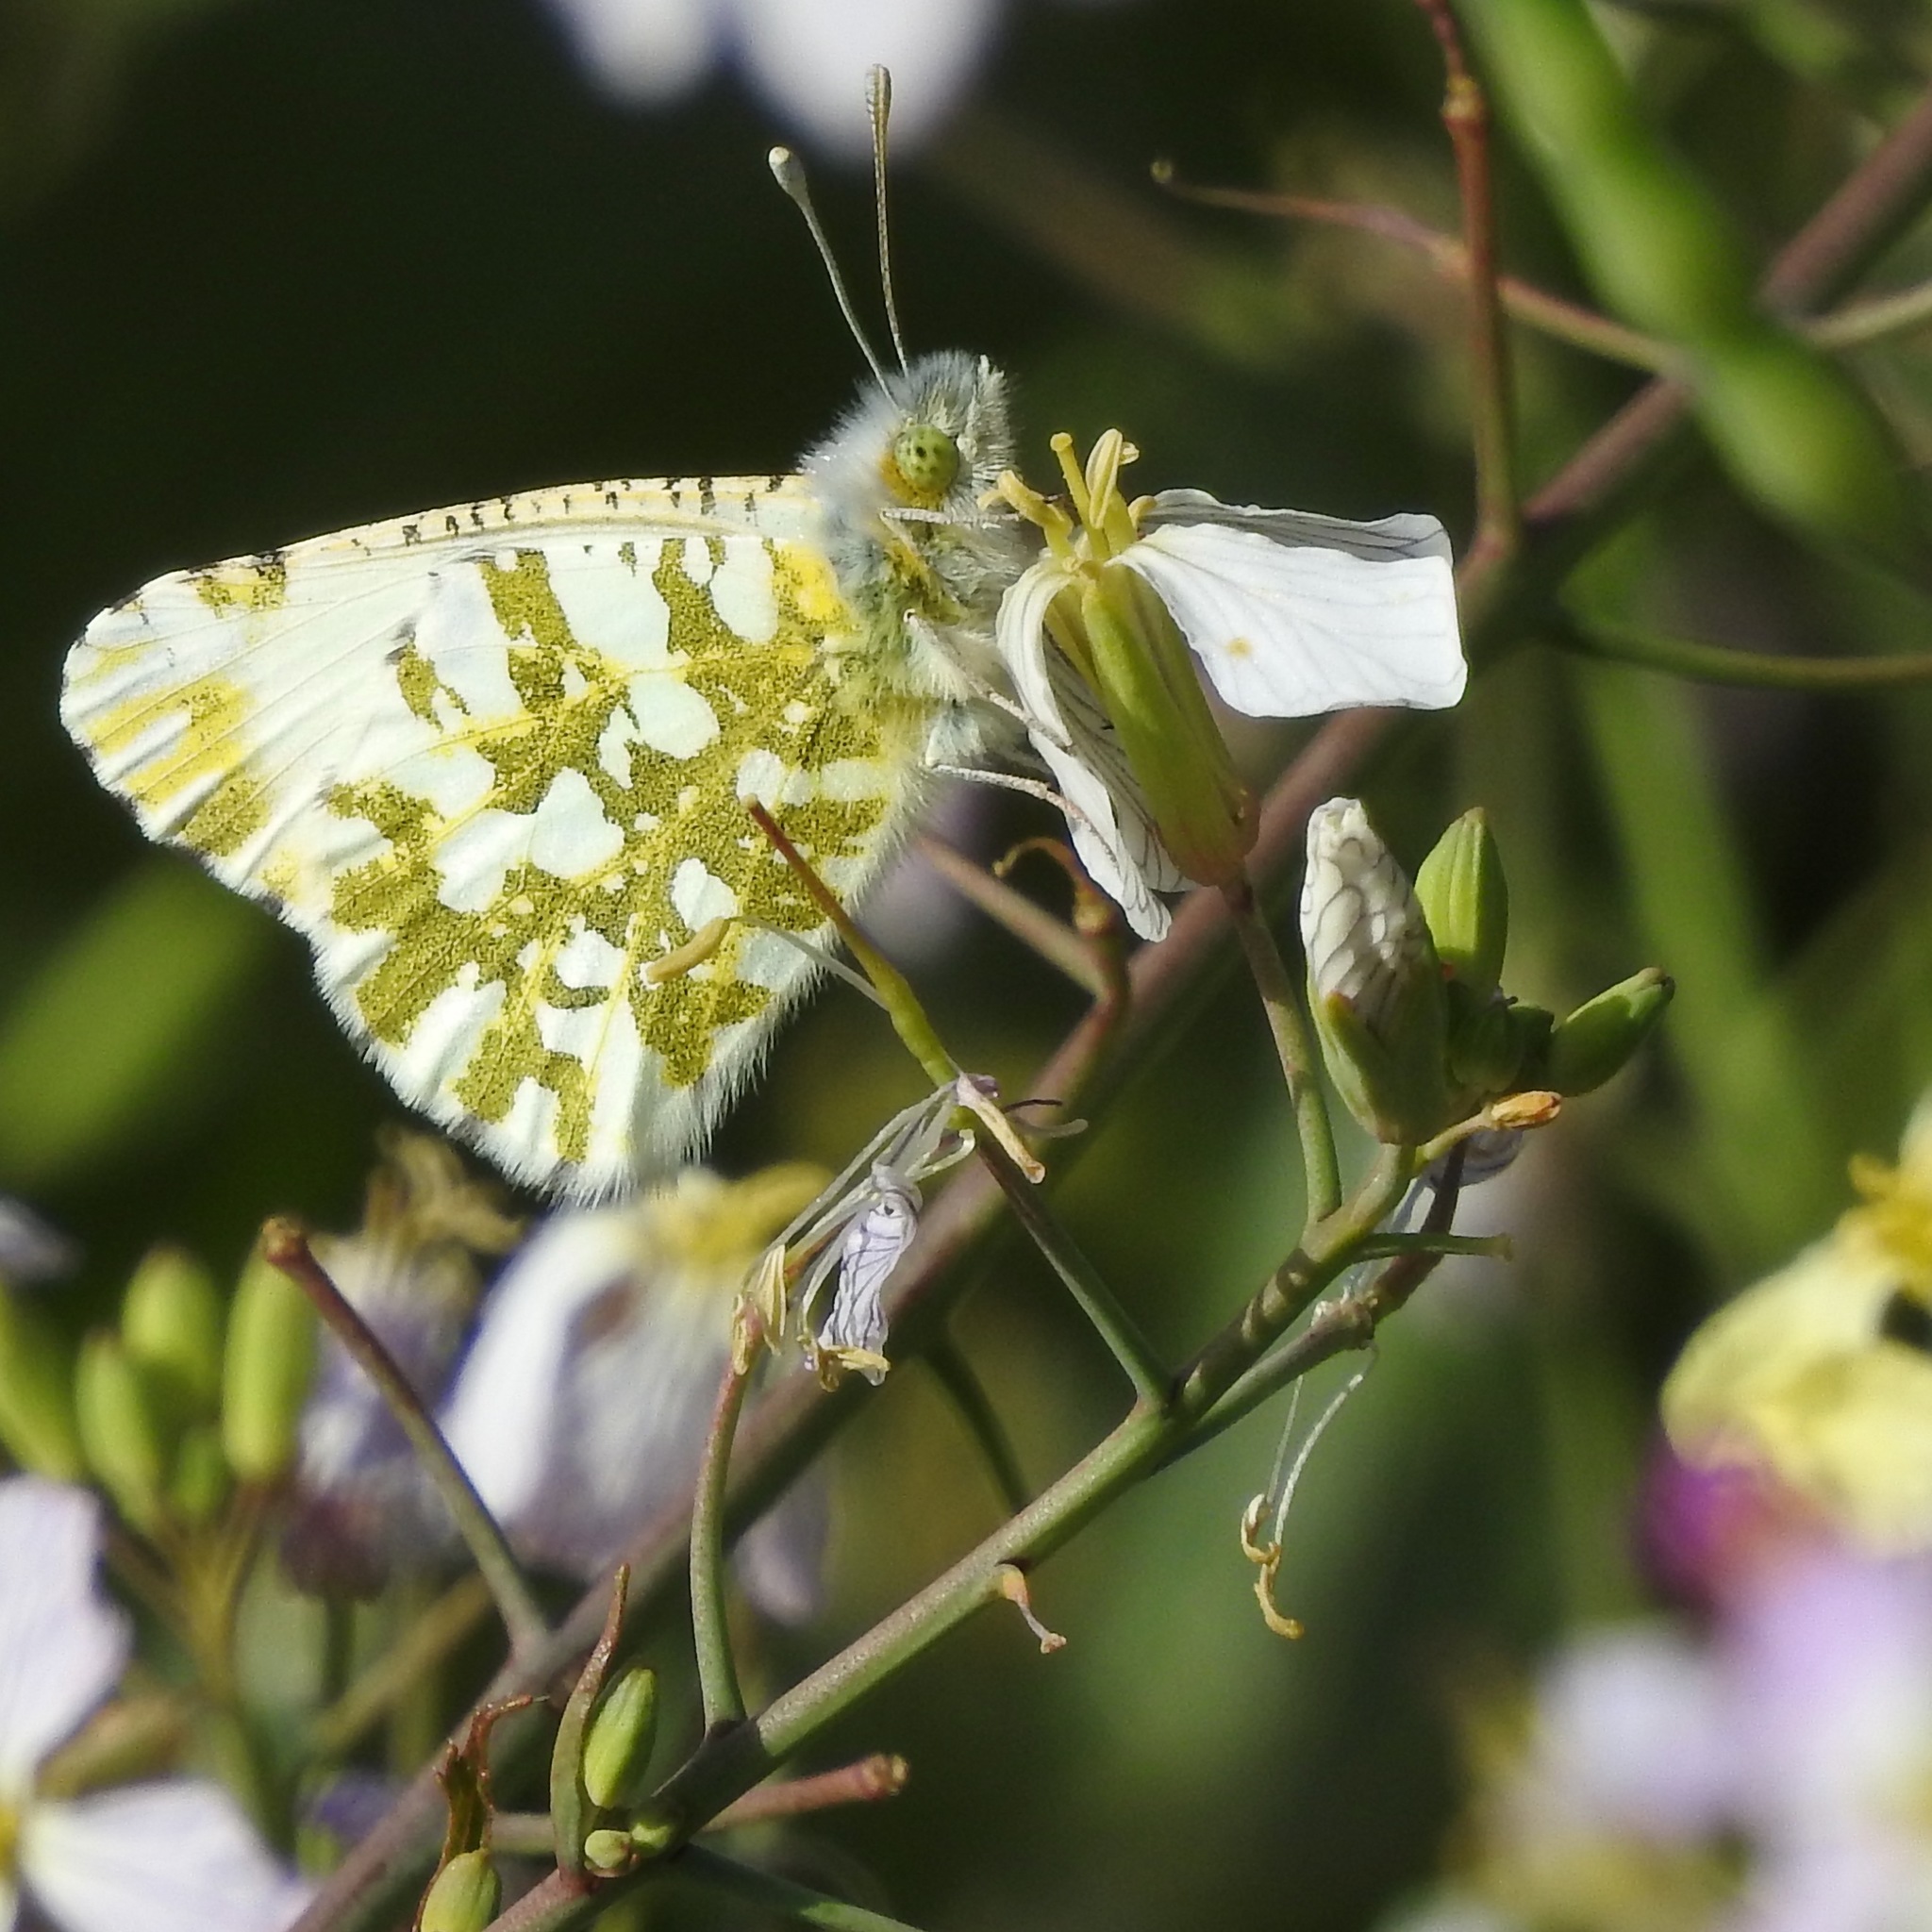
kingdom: Animalia
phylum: Arthropoda
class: Insecta
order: Lepidoptera
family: Pieridae
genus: Euchloe
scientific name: Euchloe ausonides
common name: Creamy marblewing
